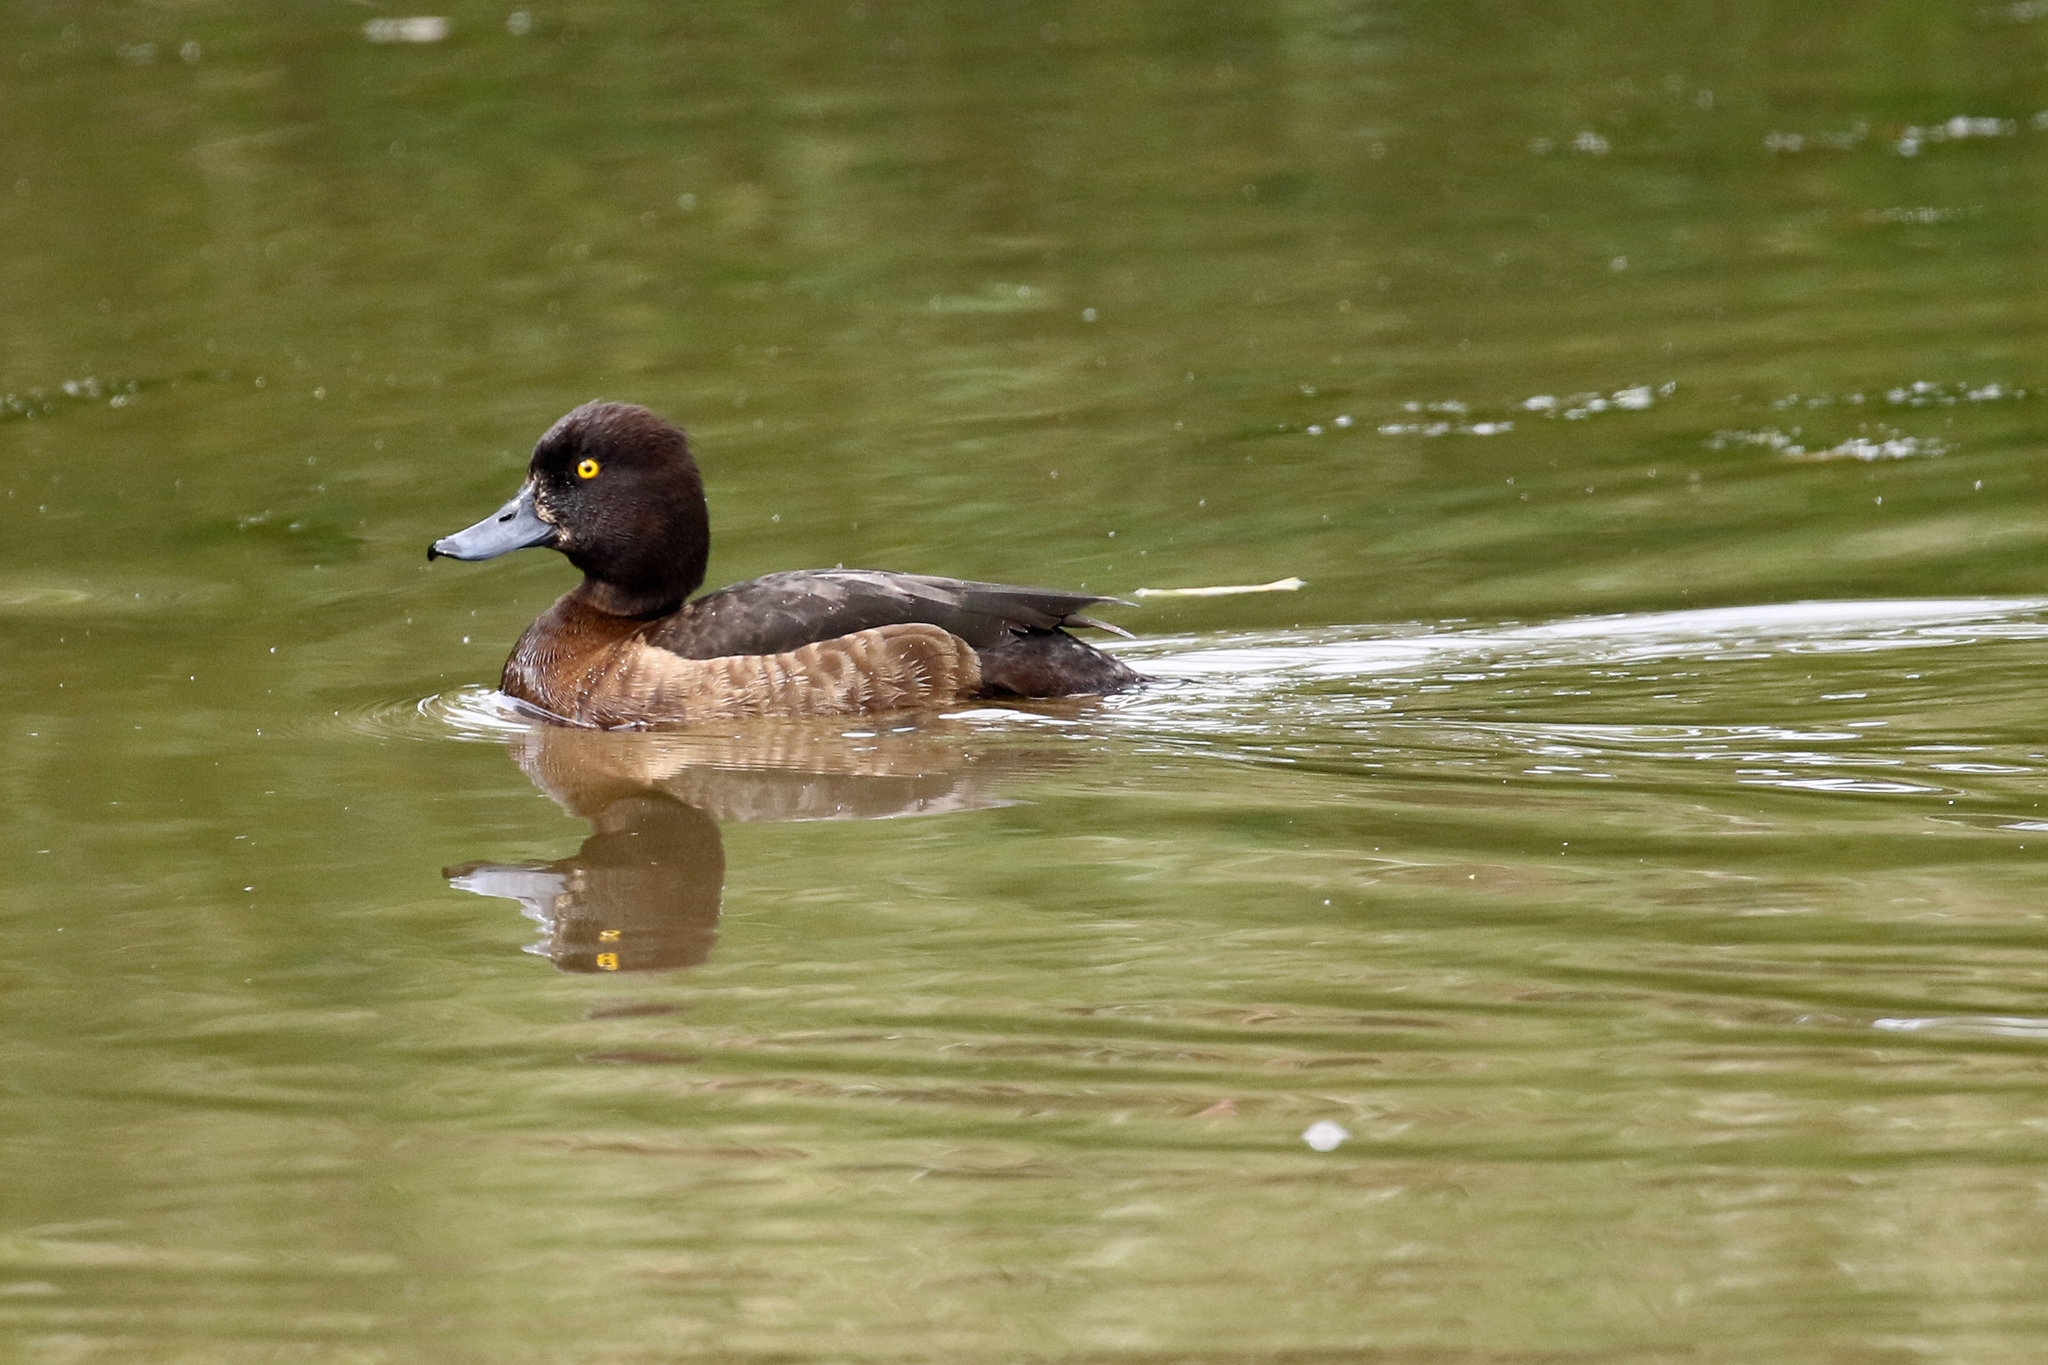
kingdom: Animalia
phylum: Chordata
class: Aves
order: Anseriformes
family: Anatidae
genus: Aythya
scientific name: Aythya fuligula
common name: Tufted duck
